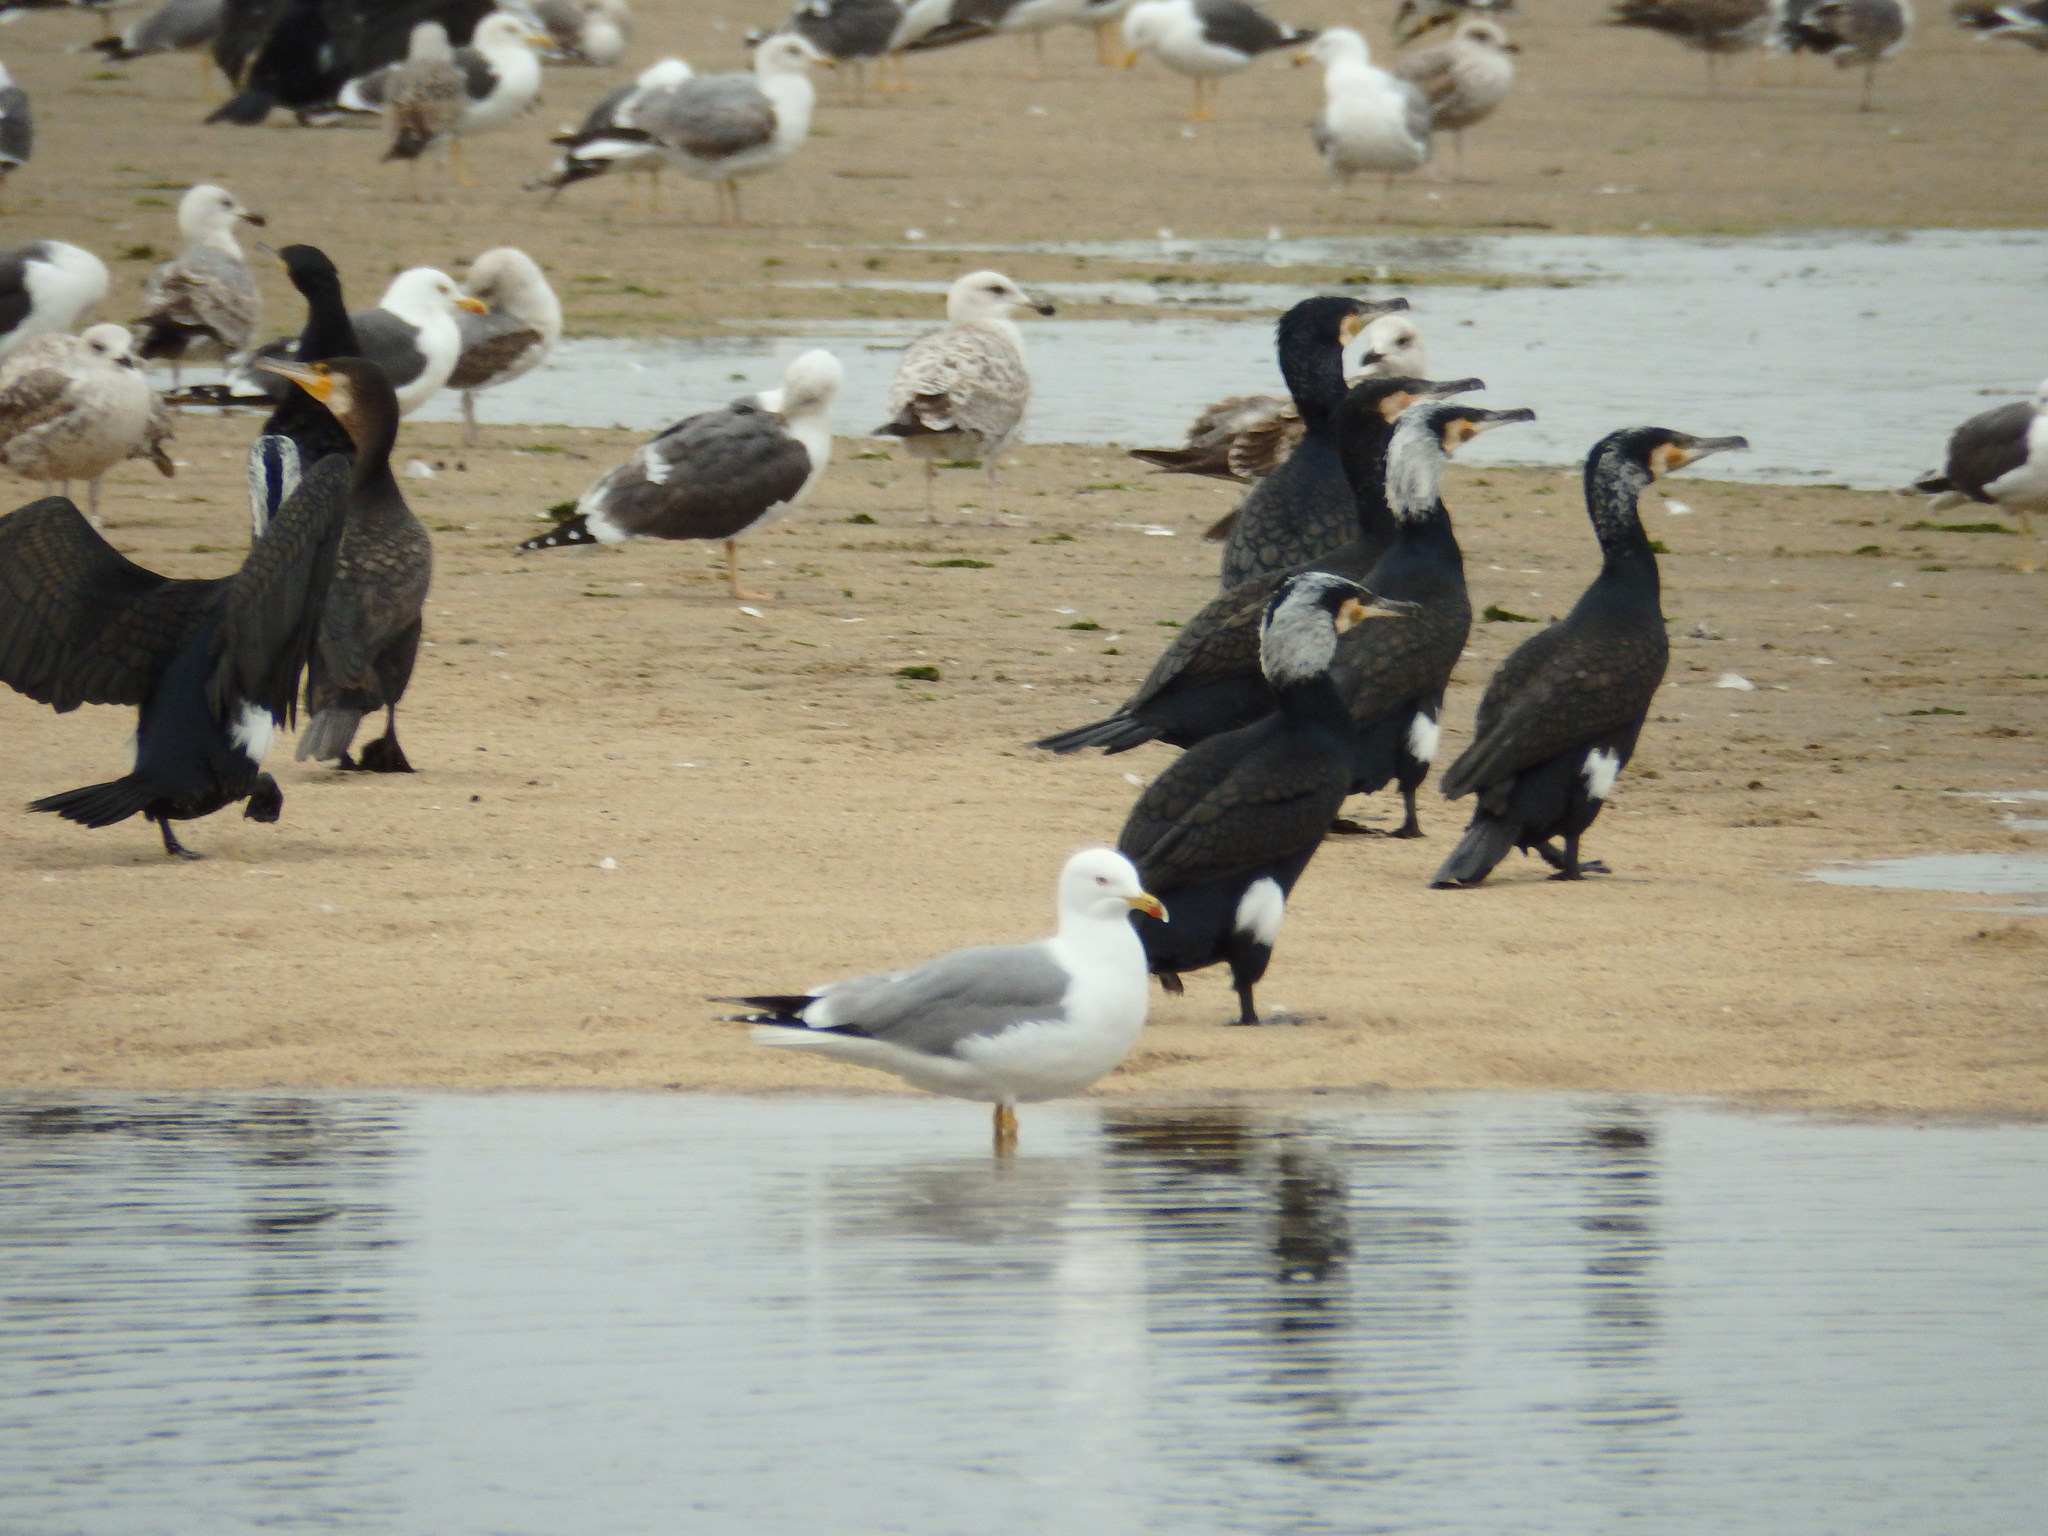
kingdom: Animalia
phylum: Chordata
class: Aves
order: Suliformes
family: Phalacrocoracidae
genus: Phalacrocorax
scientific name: Phalacrocorax carbo
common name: Great cormorant
